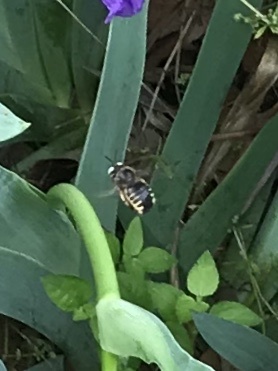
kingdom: Animalia
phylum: Arthropoda
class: Insecta
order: Hymenoptera
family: Apidae
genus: Xylocopa
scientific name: Xylocopa tabaniformis
